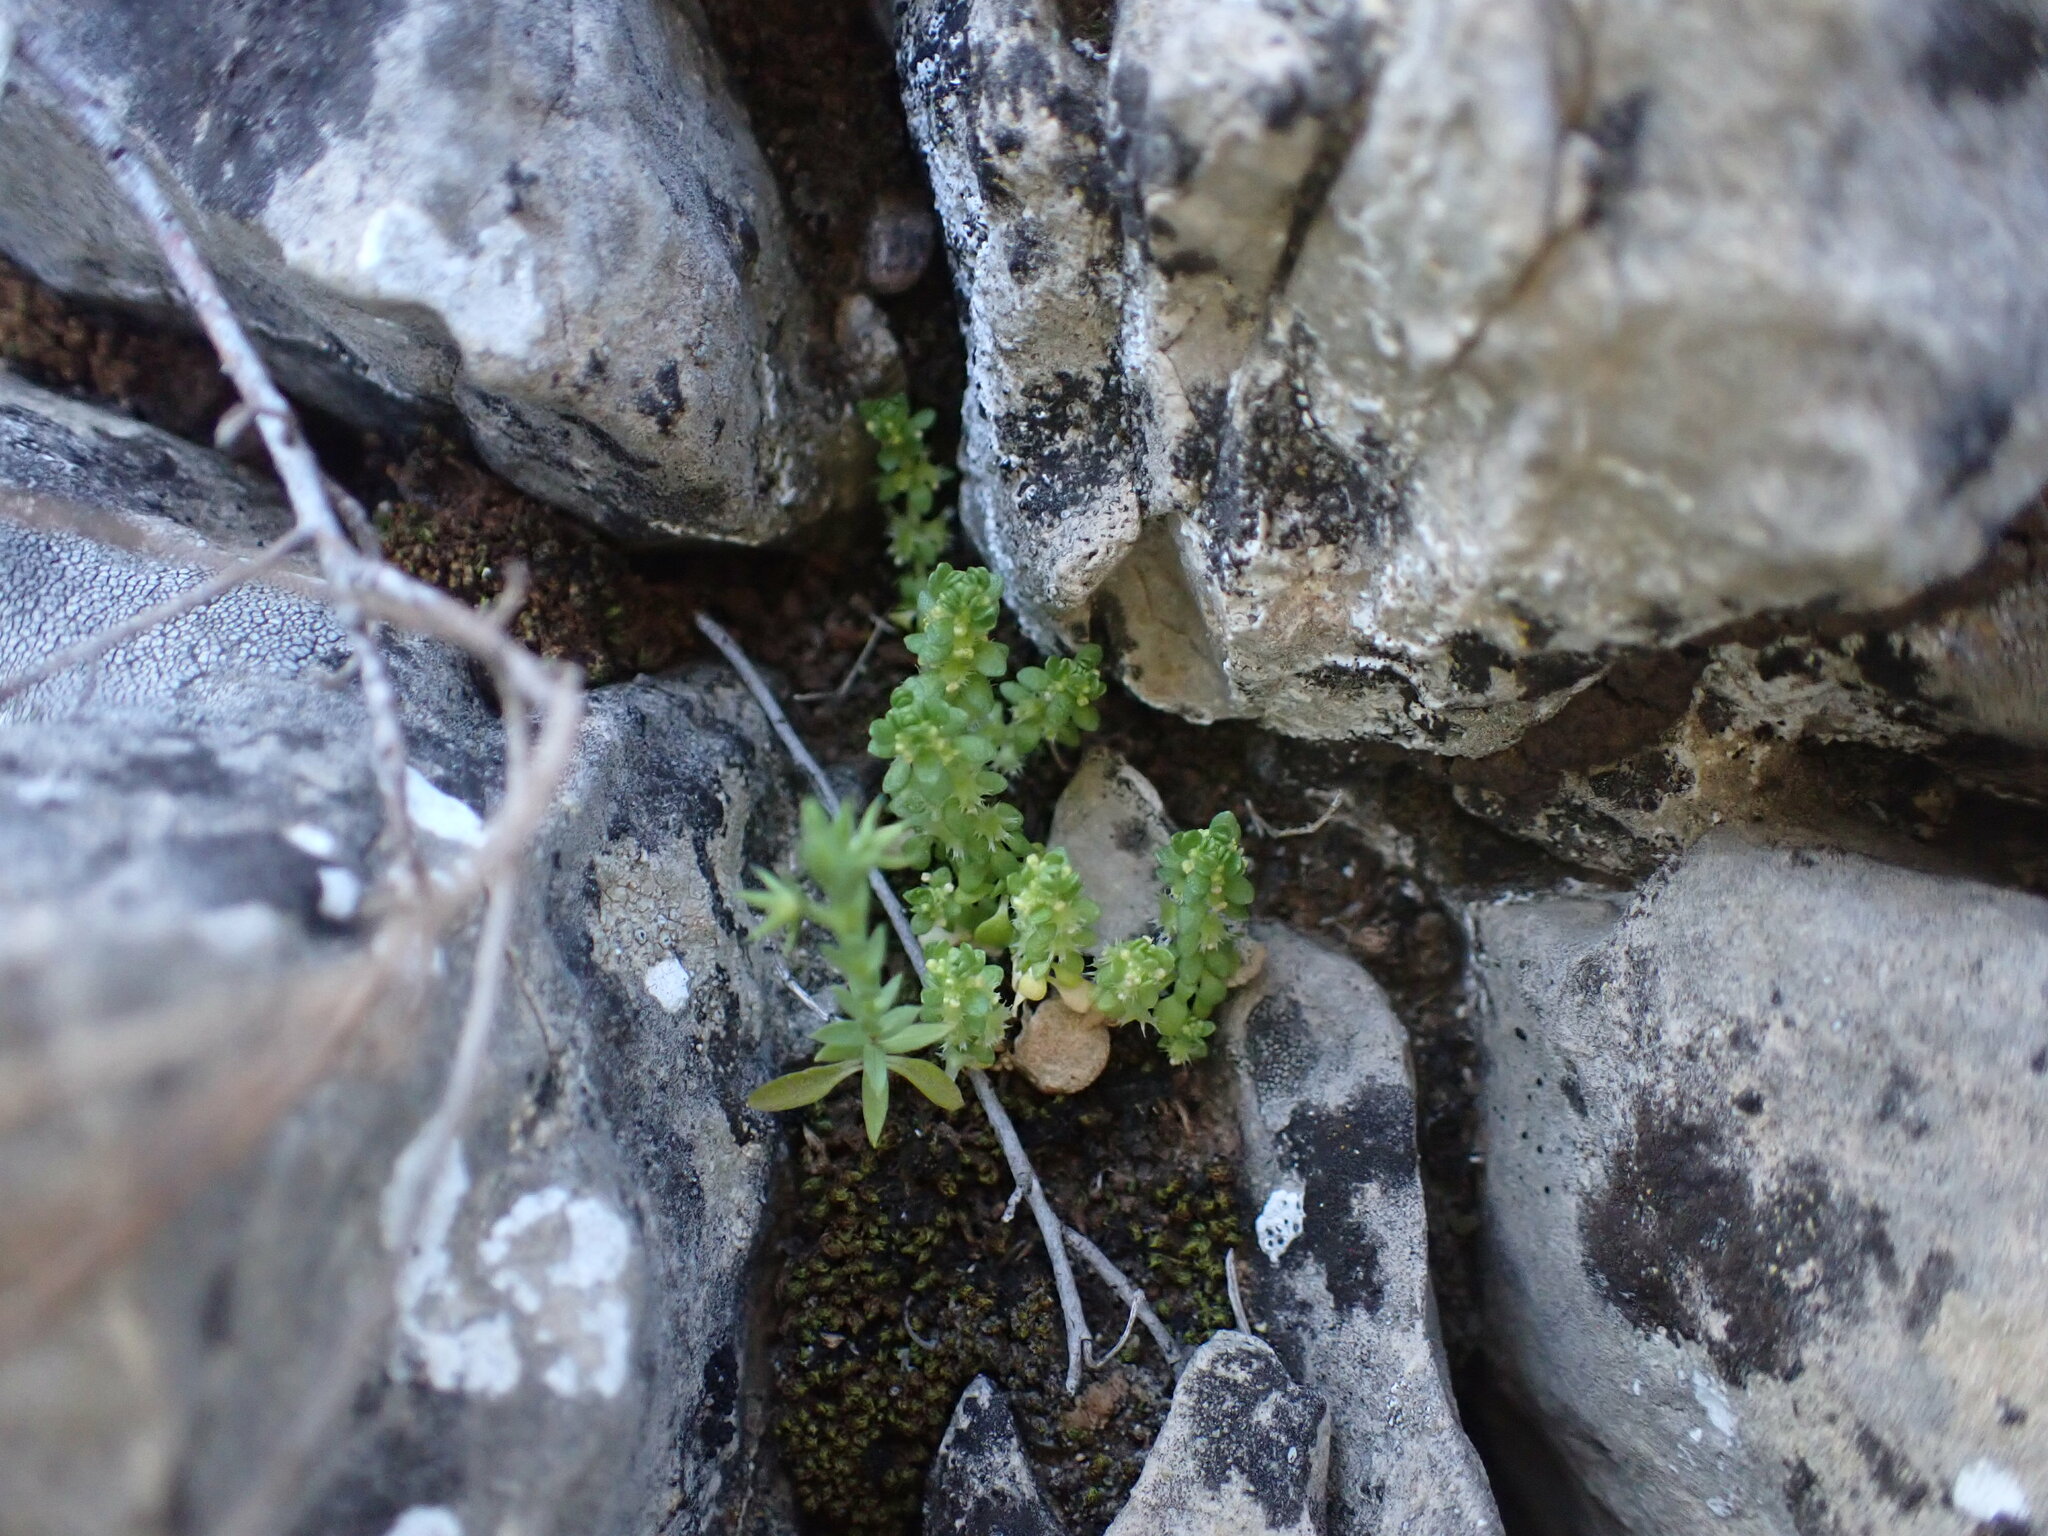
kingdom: Plantae
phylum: Tracheophyta
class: Magnoliopsida
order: Gentianales
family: Rubiaceae
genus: Valantia
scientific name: Valantia muralis
